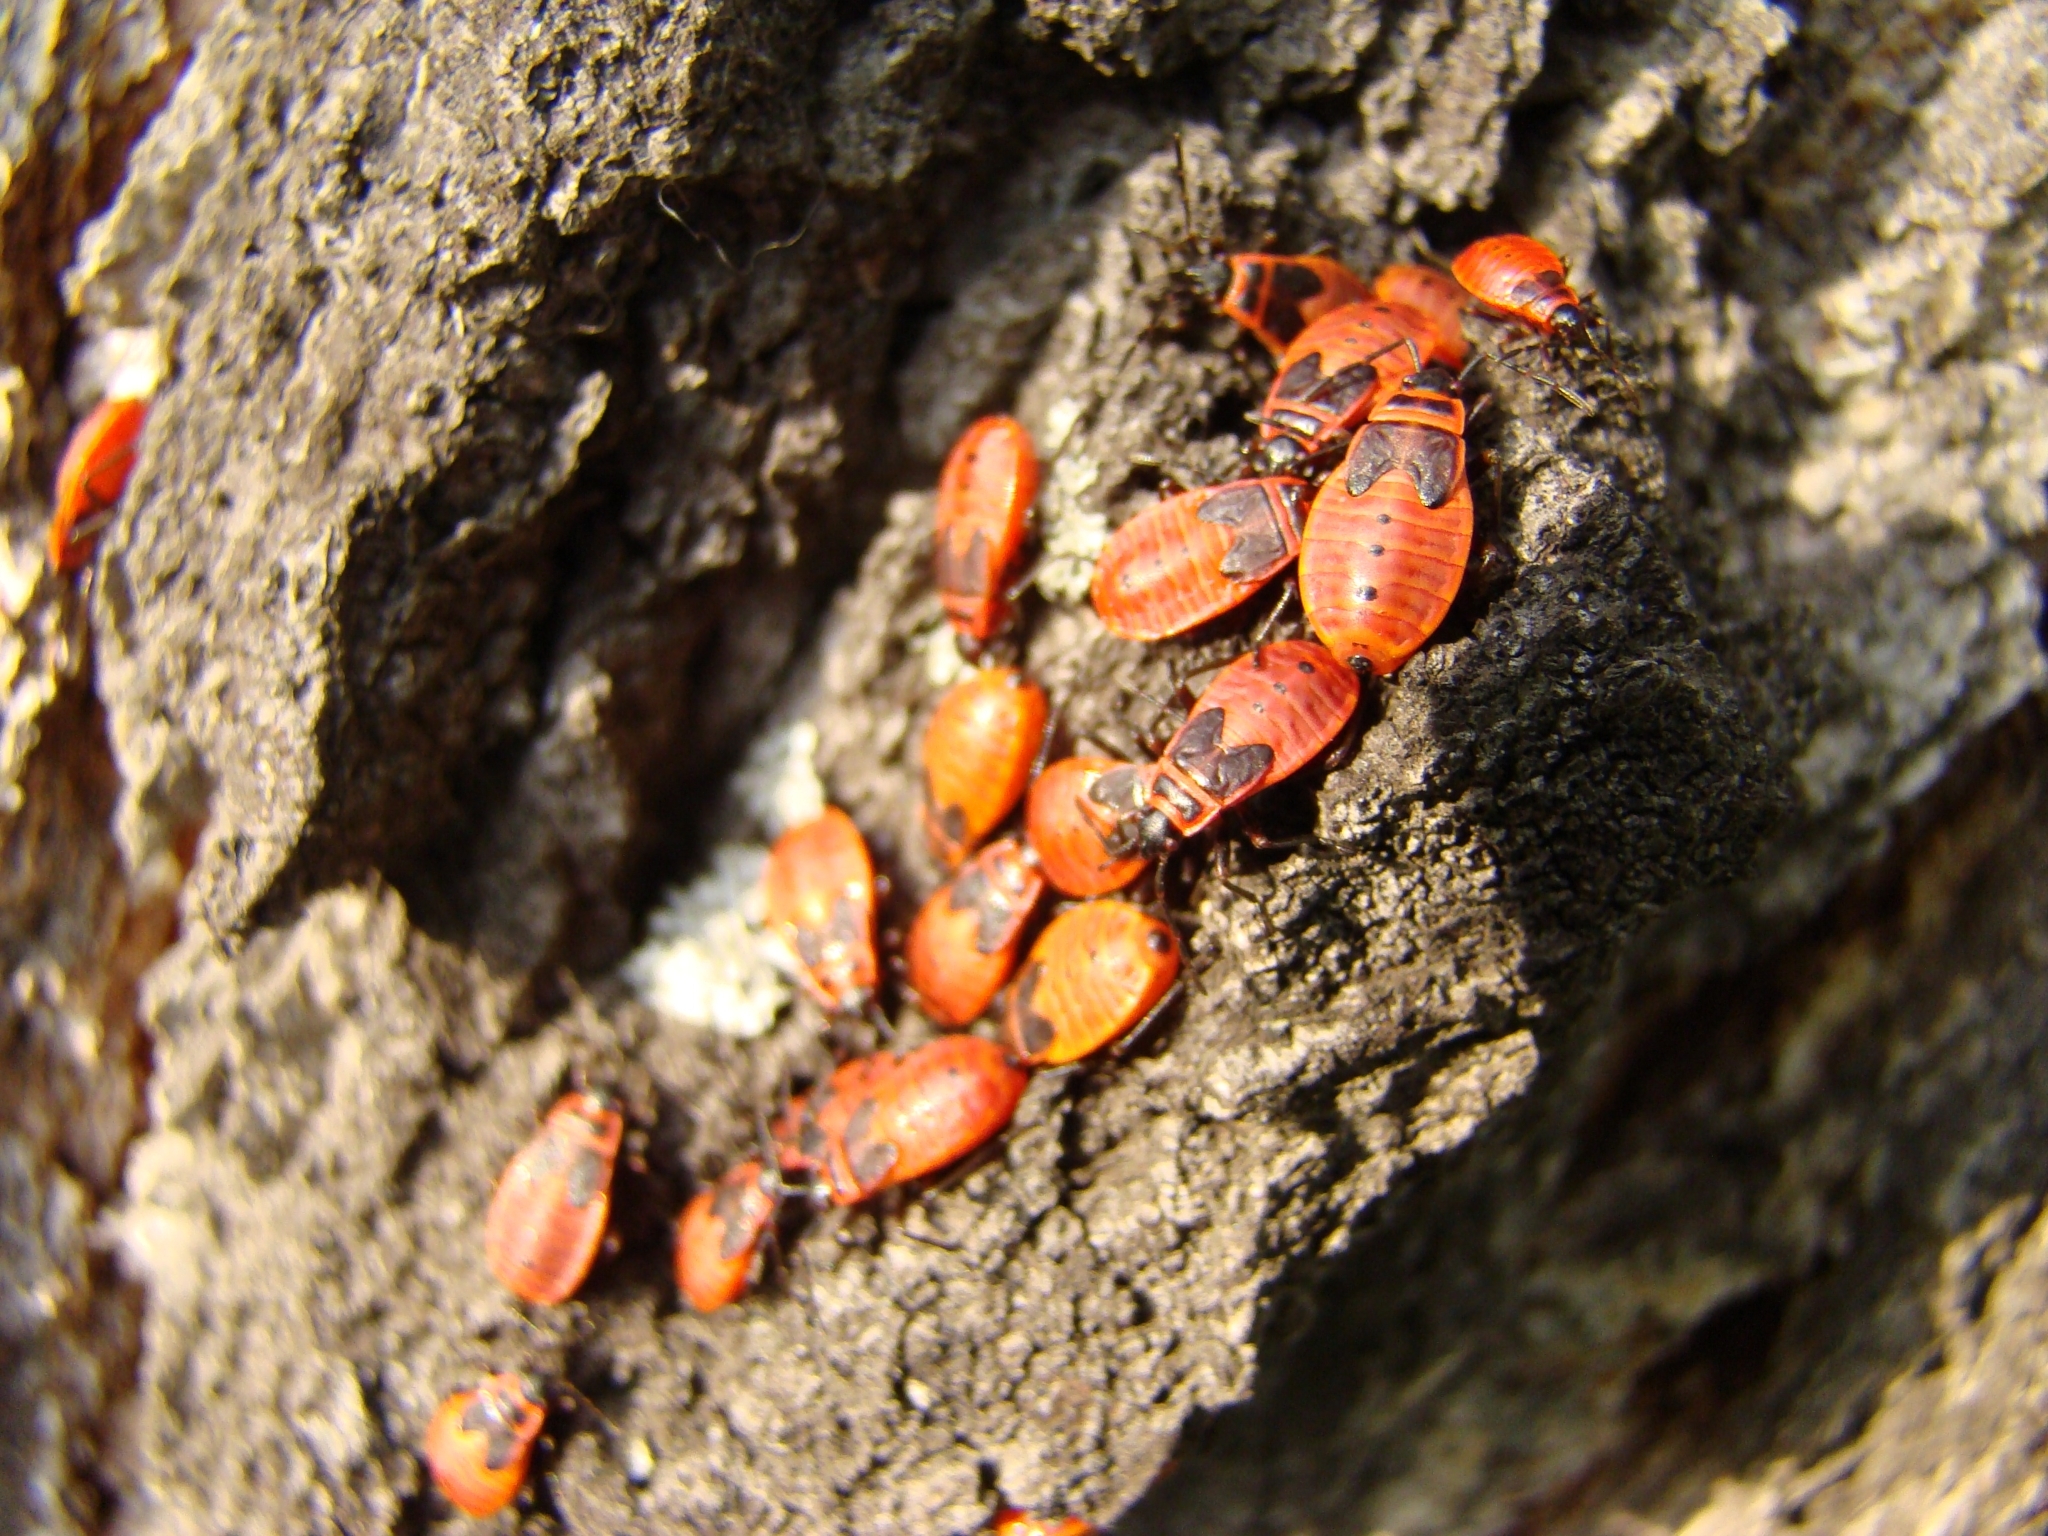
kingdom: Animalia
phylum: Arthropoda
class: Insecta
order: Hemiptera
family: Pyrrhocoridae
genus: Pyrrhocoris
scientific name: Pyrrhocoris apterus
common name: Firebug
